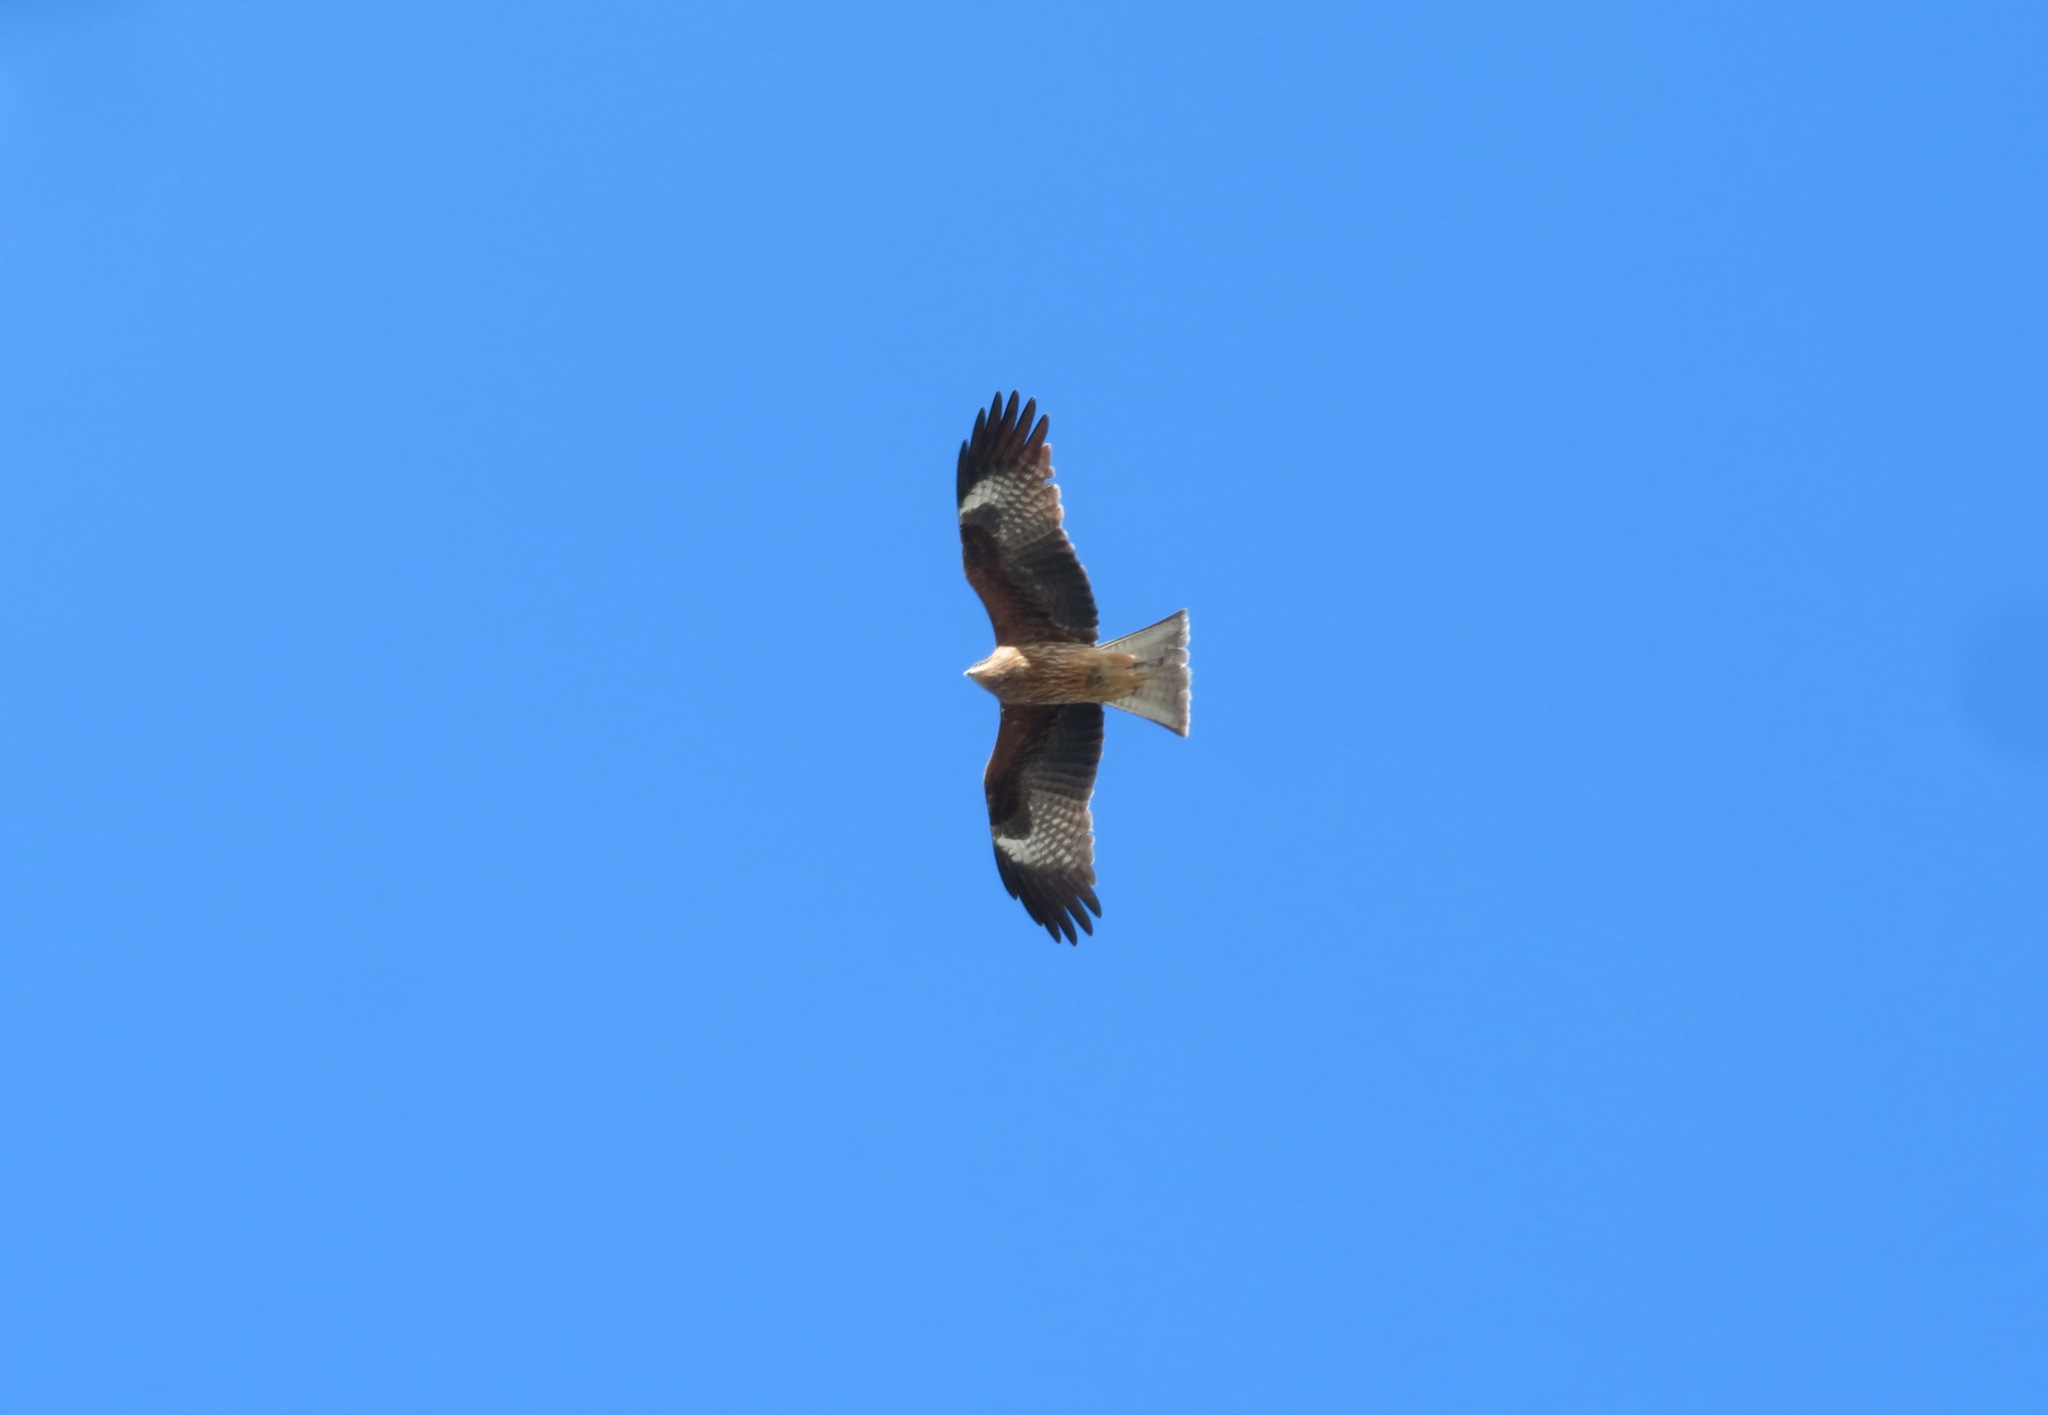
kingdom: Animalia
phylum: Chordata
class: Aves
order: Accipitriformes
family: Accipitridae
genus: Milvus
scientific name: Milvus migrans
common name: Black kite
